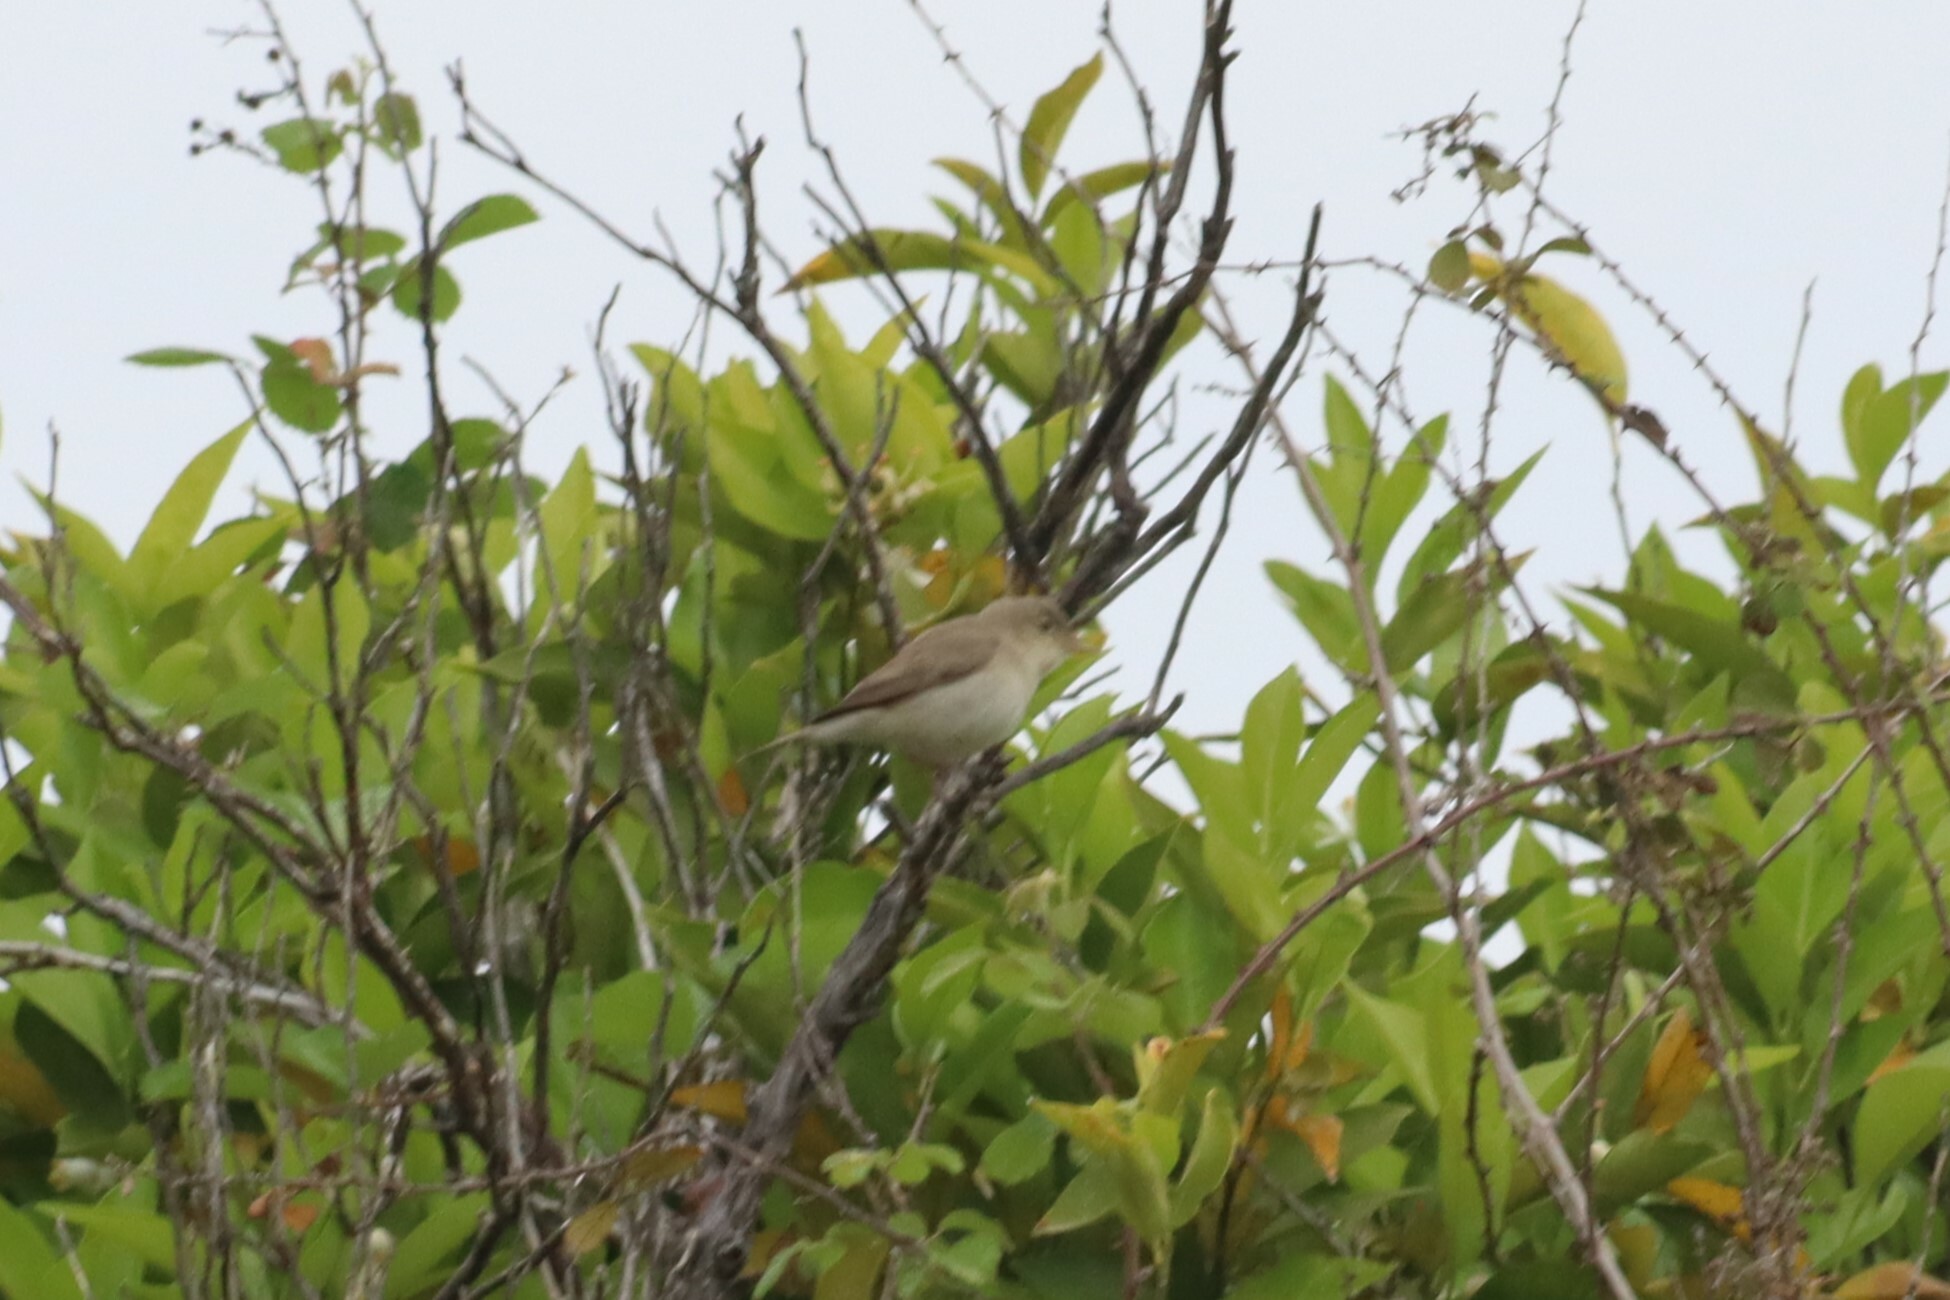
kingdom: Animalia
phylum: Chordata
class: Aves
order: Passeriformes
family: Acrocephalidae
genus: Iduna
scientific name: Iduna pallida
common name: Eastern olivaceous warbler
